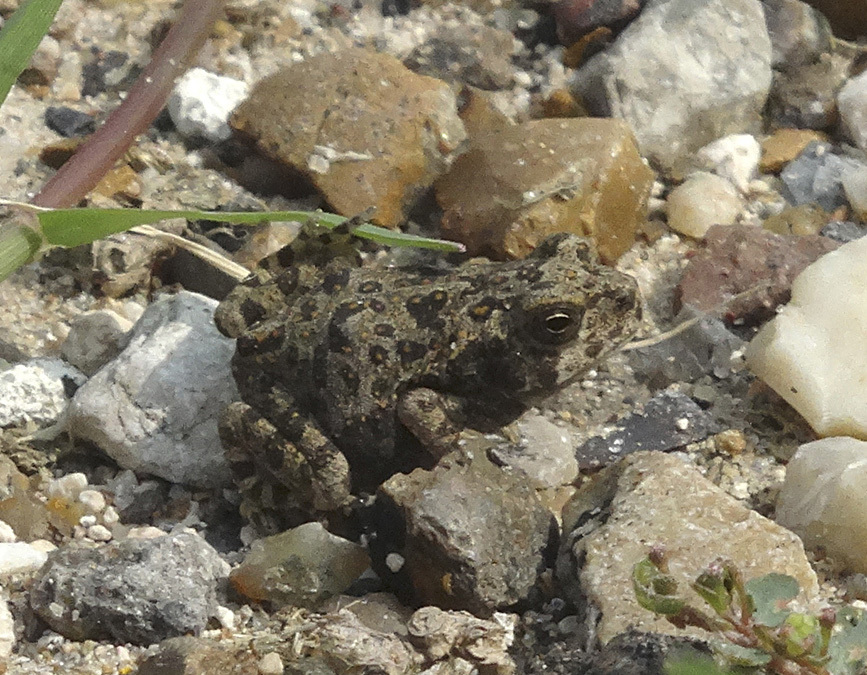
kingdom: Animalia
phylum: Chordata
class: Amphibia
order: Anura
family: Bufonidae
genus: Rhinella
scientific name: Rhinella horribilis
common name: Mesoamerican cane toad
